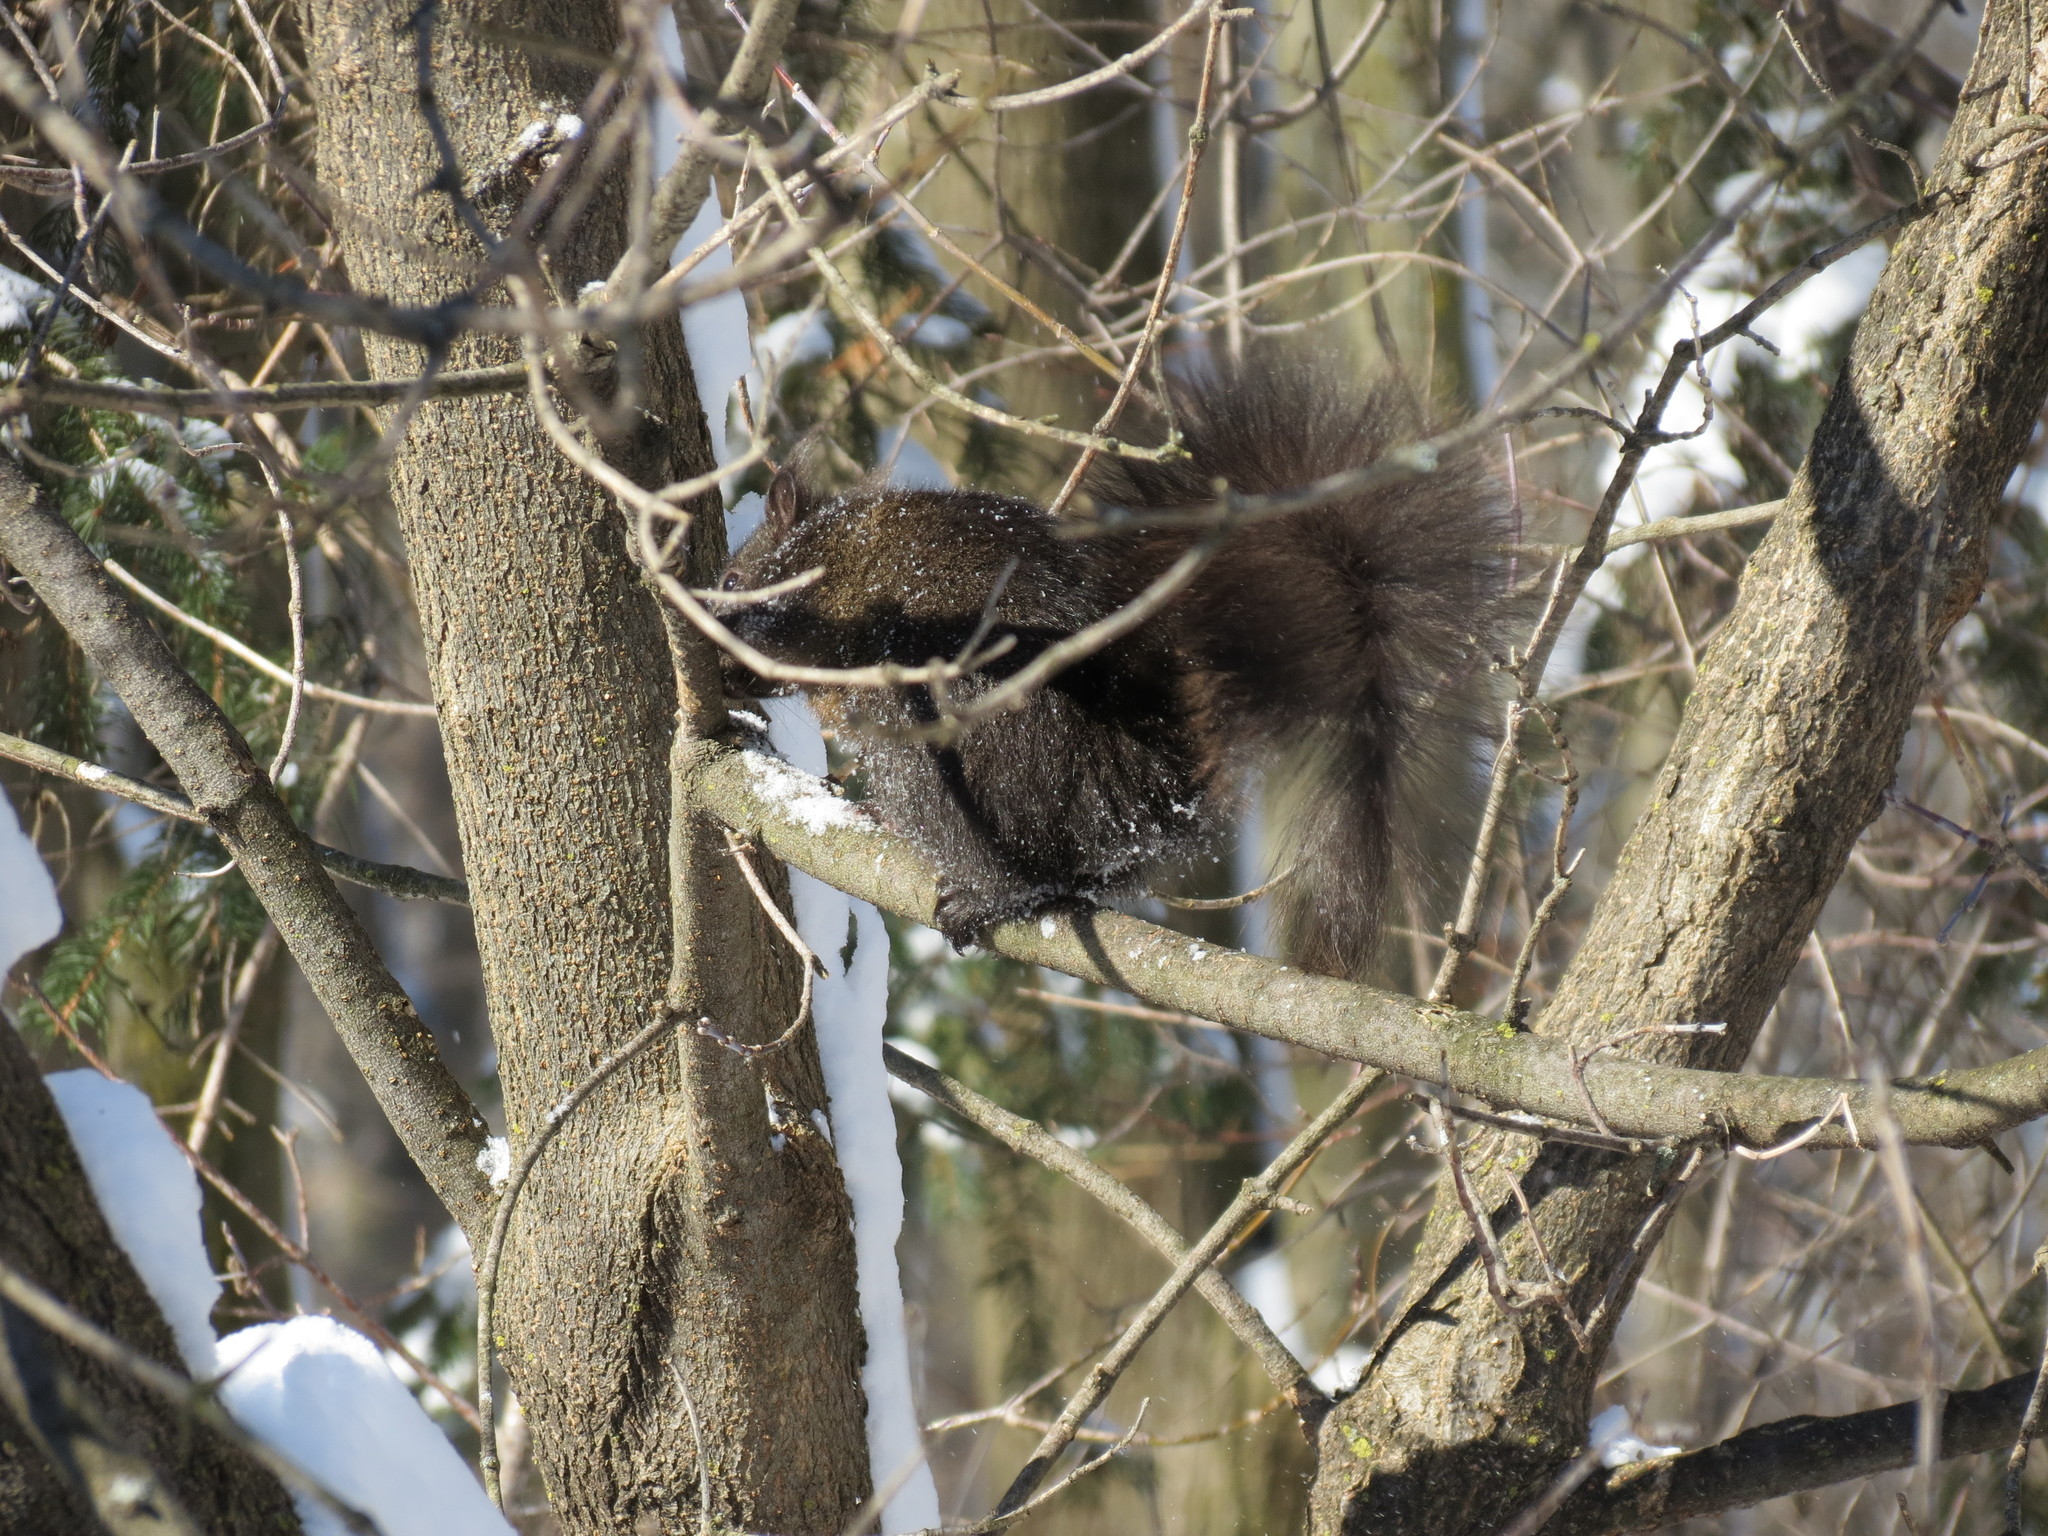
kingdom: Animalia
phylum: Chordata
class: Mammalia
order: Rodentia
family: Sciuridae
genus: Sciurus
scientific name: Sciurus carolinensis
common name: Eastern gray squirrel
